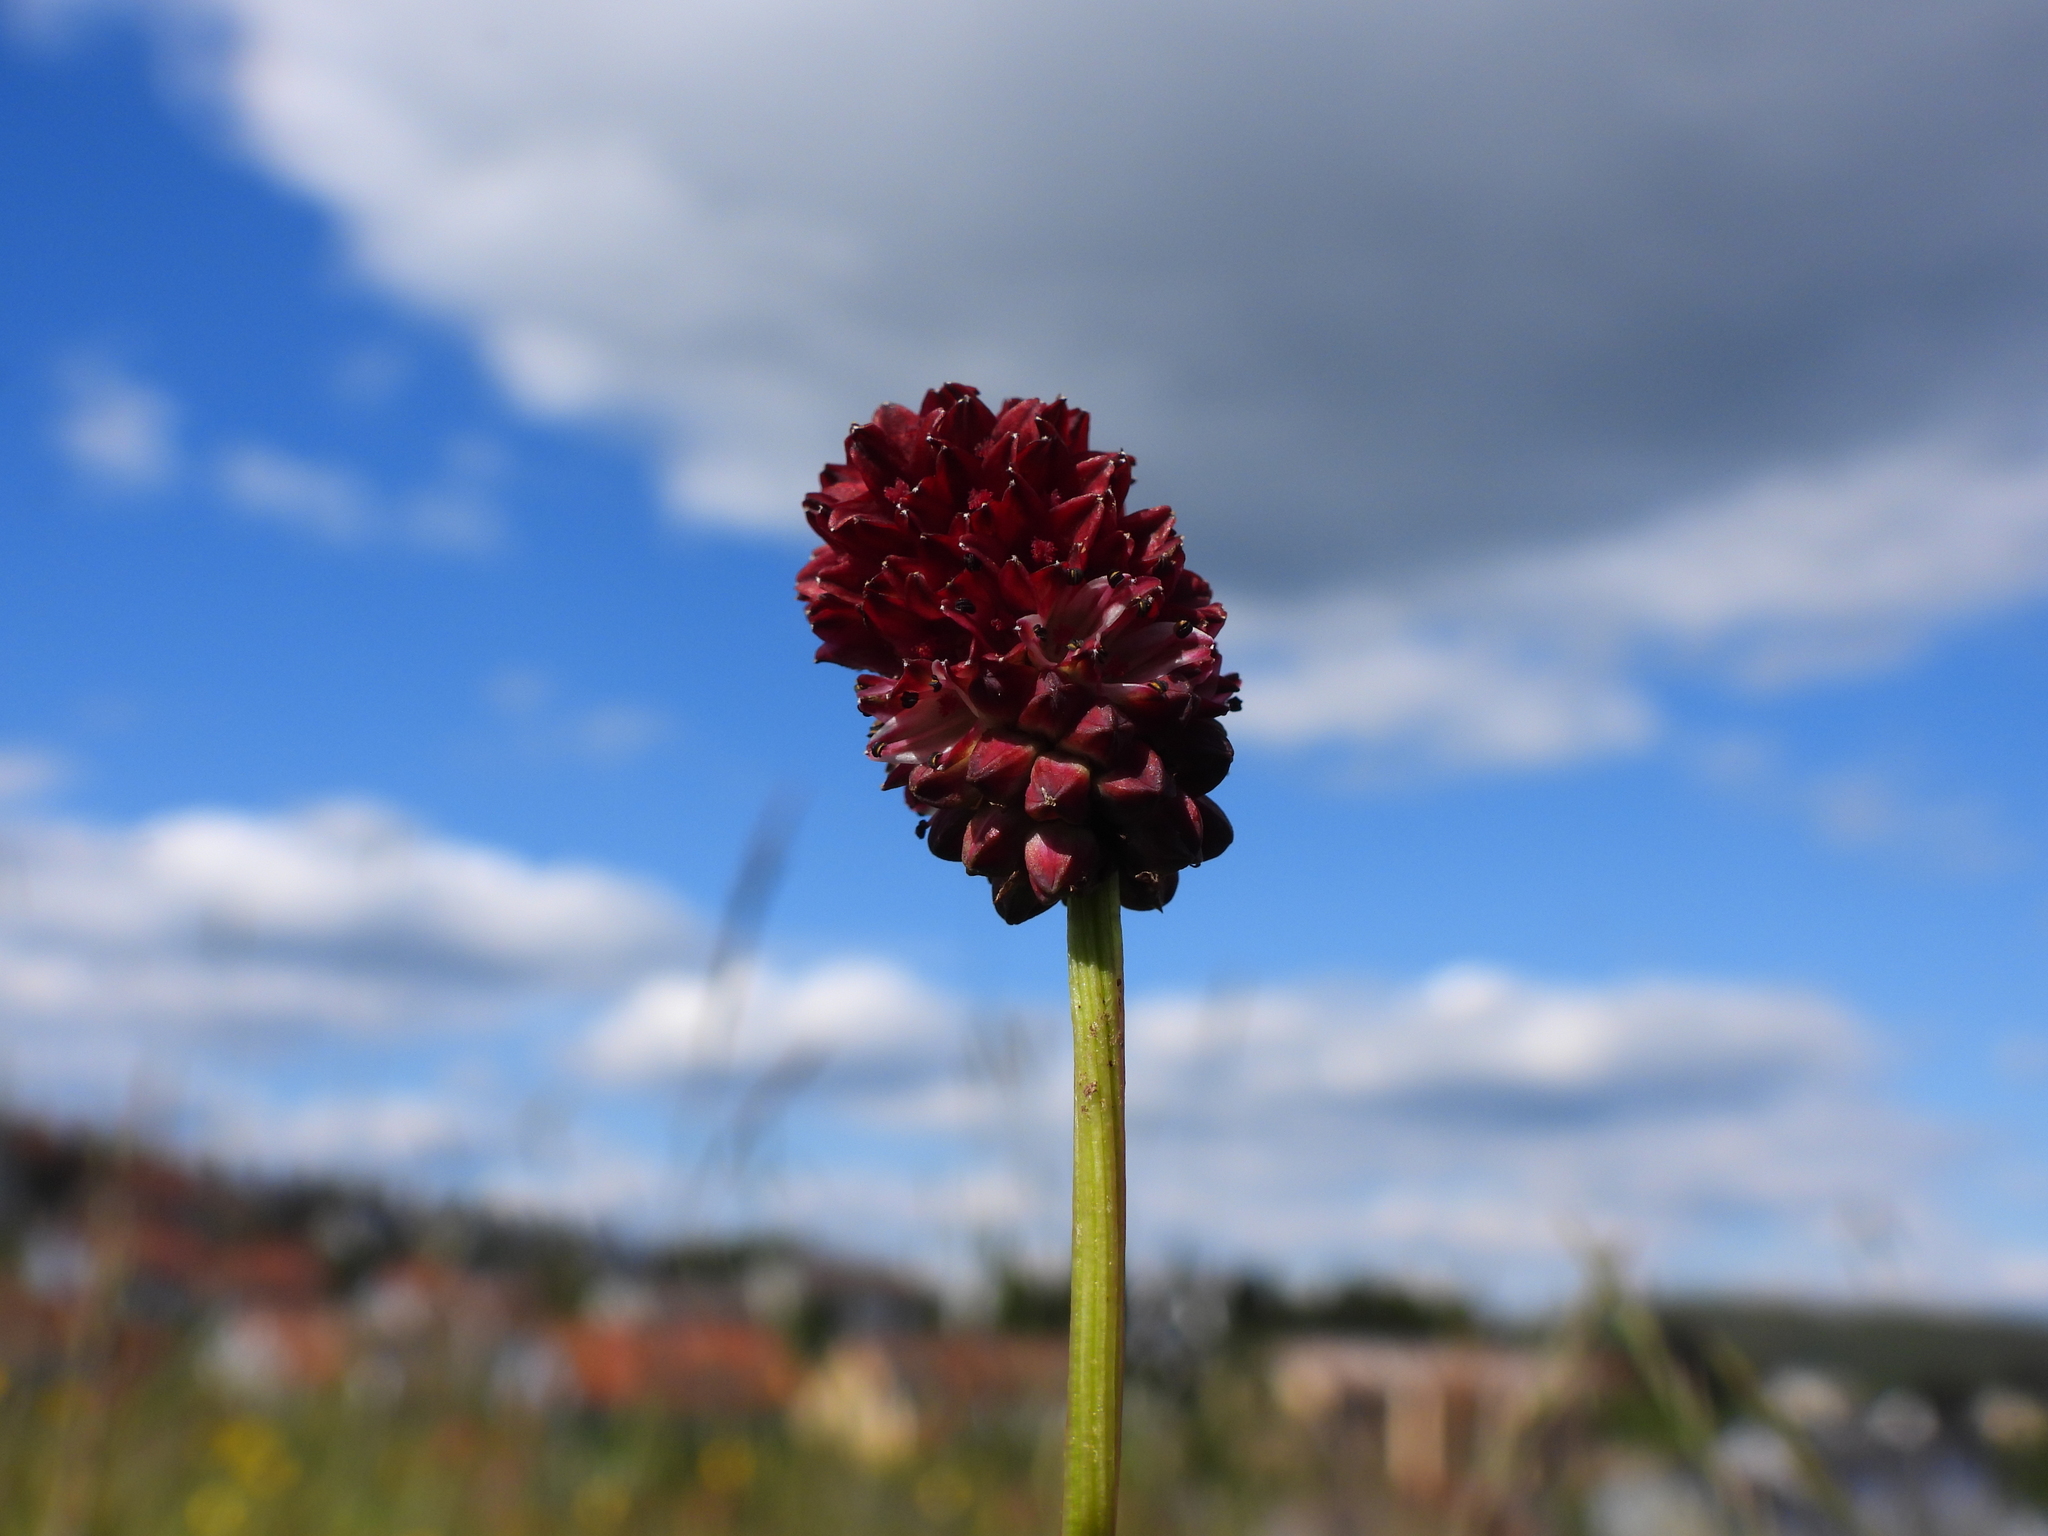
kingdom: Plantae
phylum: Tracheophyta
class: Magnoliopsida
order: Rosales
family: Rosaceae
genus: Sanguisorba
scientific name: Sanguisorba officinalis
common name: Great burnet
